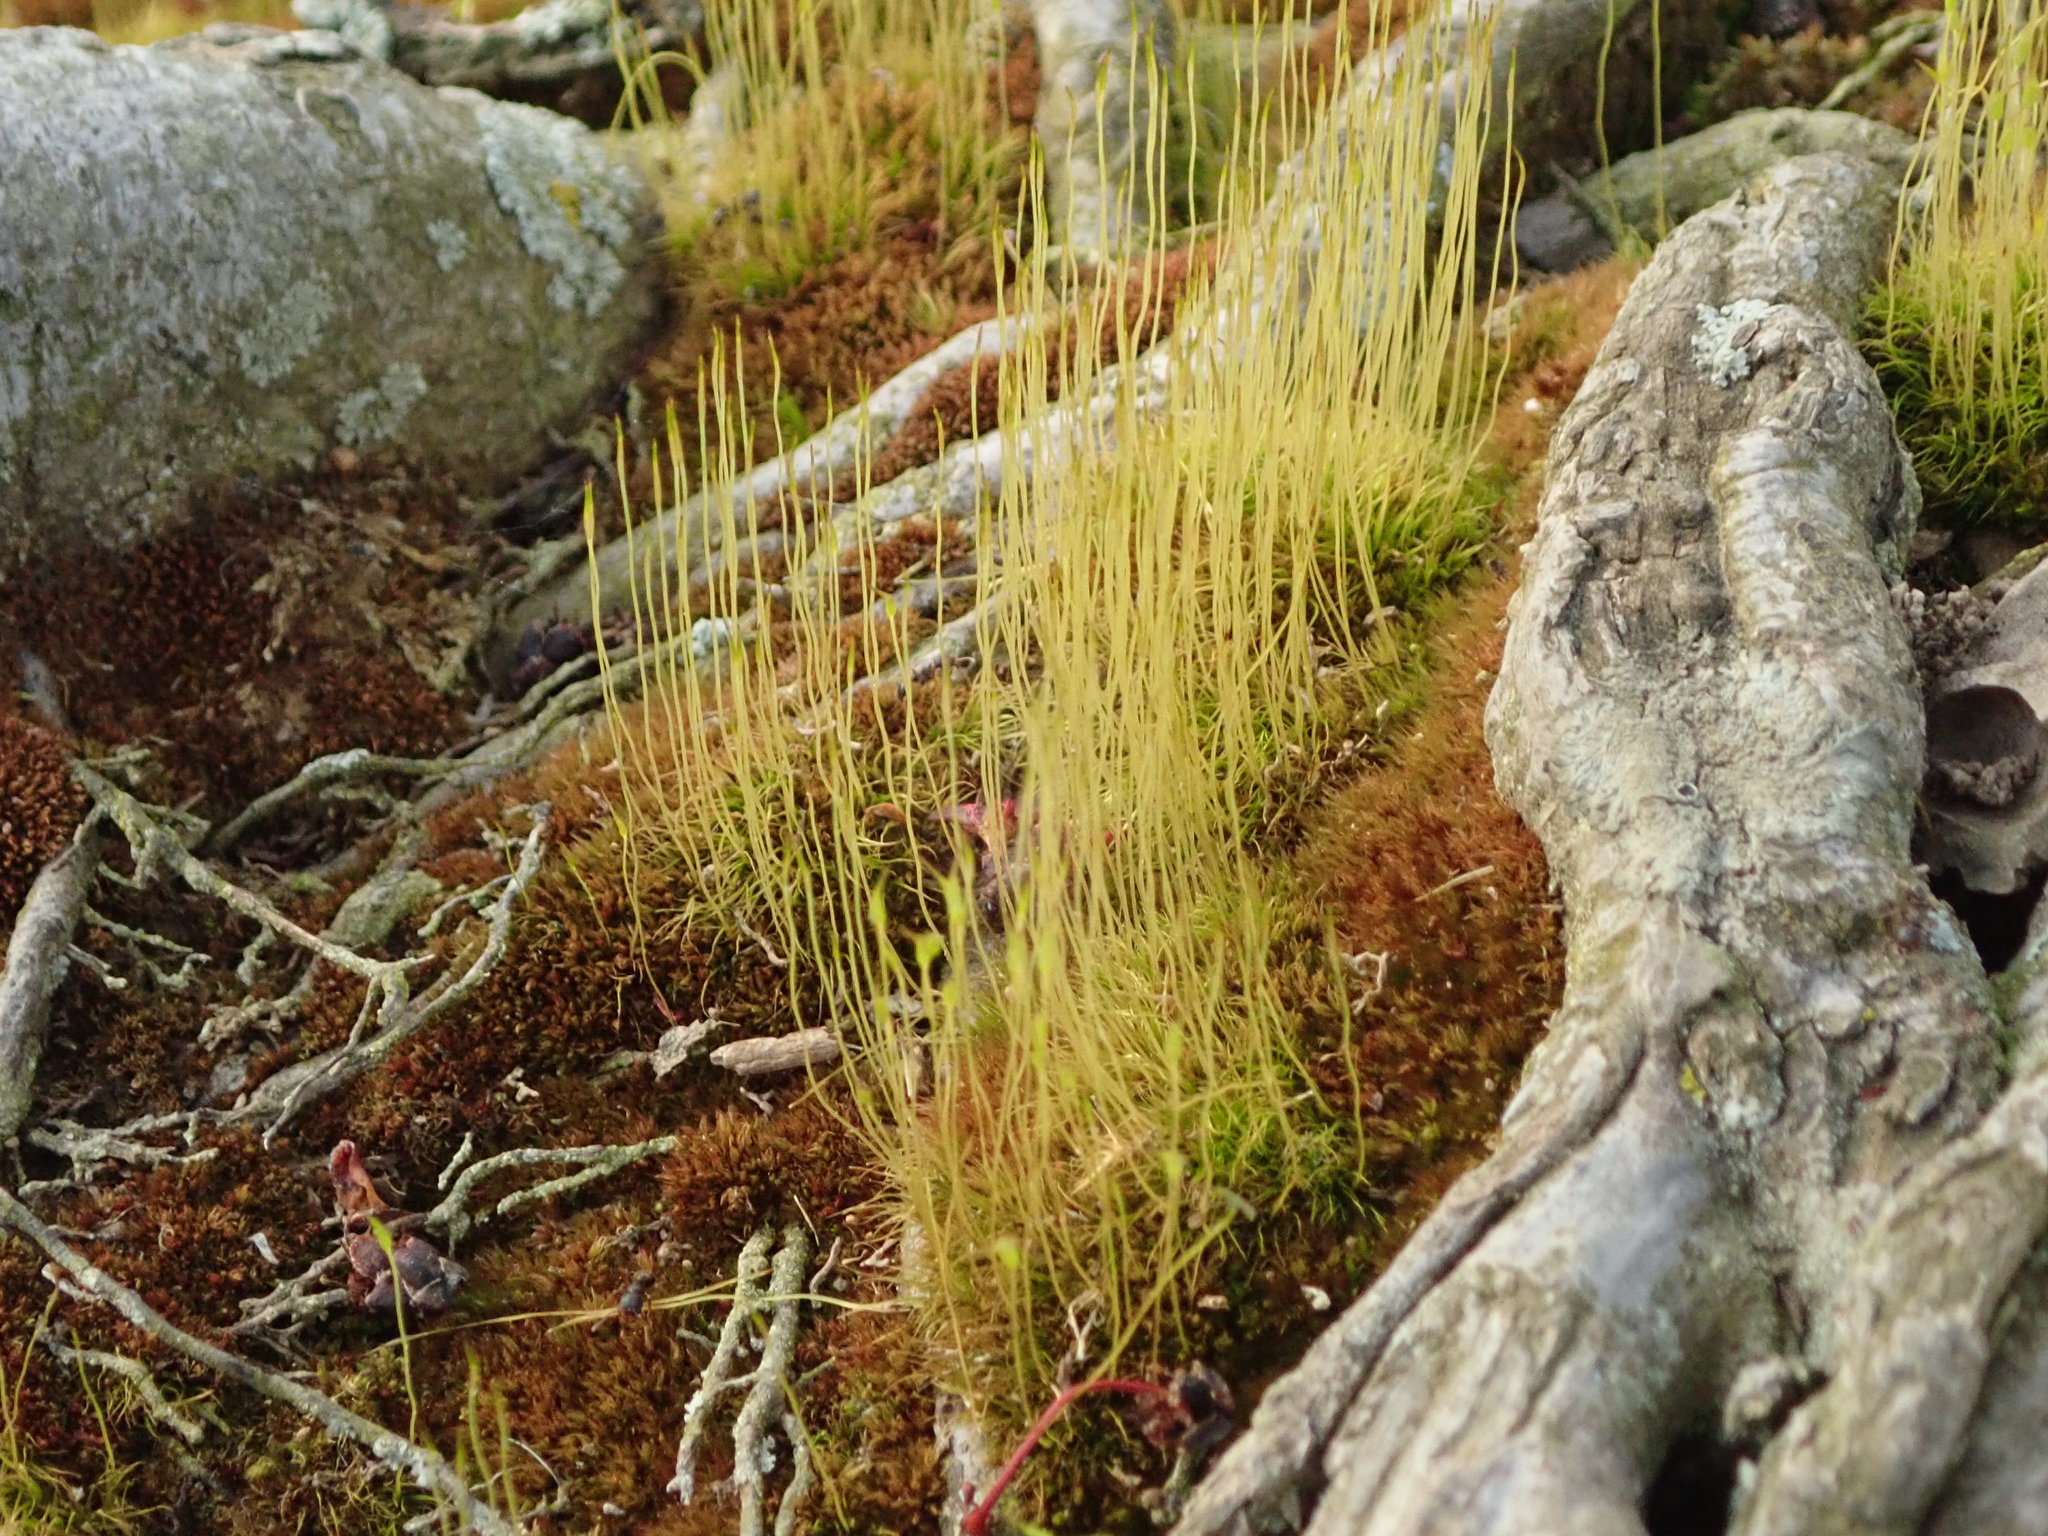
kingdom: Plantae
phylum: Bryophyta
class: Bryopsida
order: Dicranales
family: Ditrichaceae
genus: Ditrichum
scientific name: Ditrichum pallidum
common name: Pale cow-hair moss
